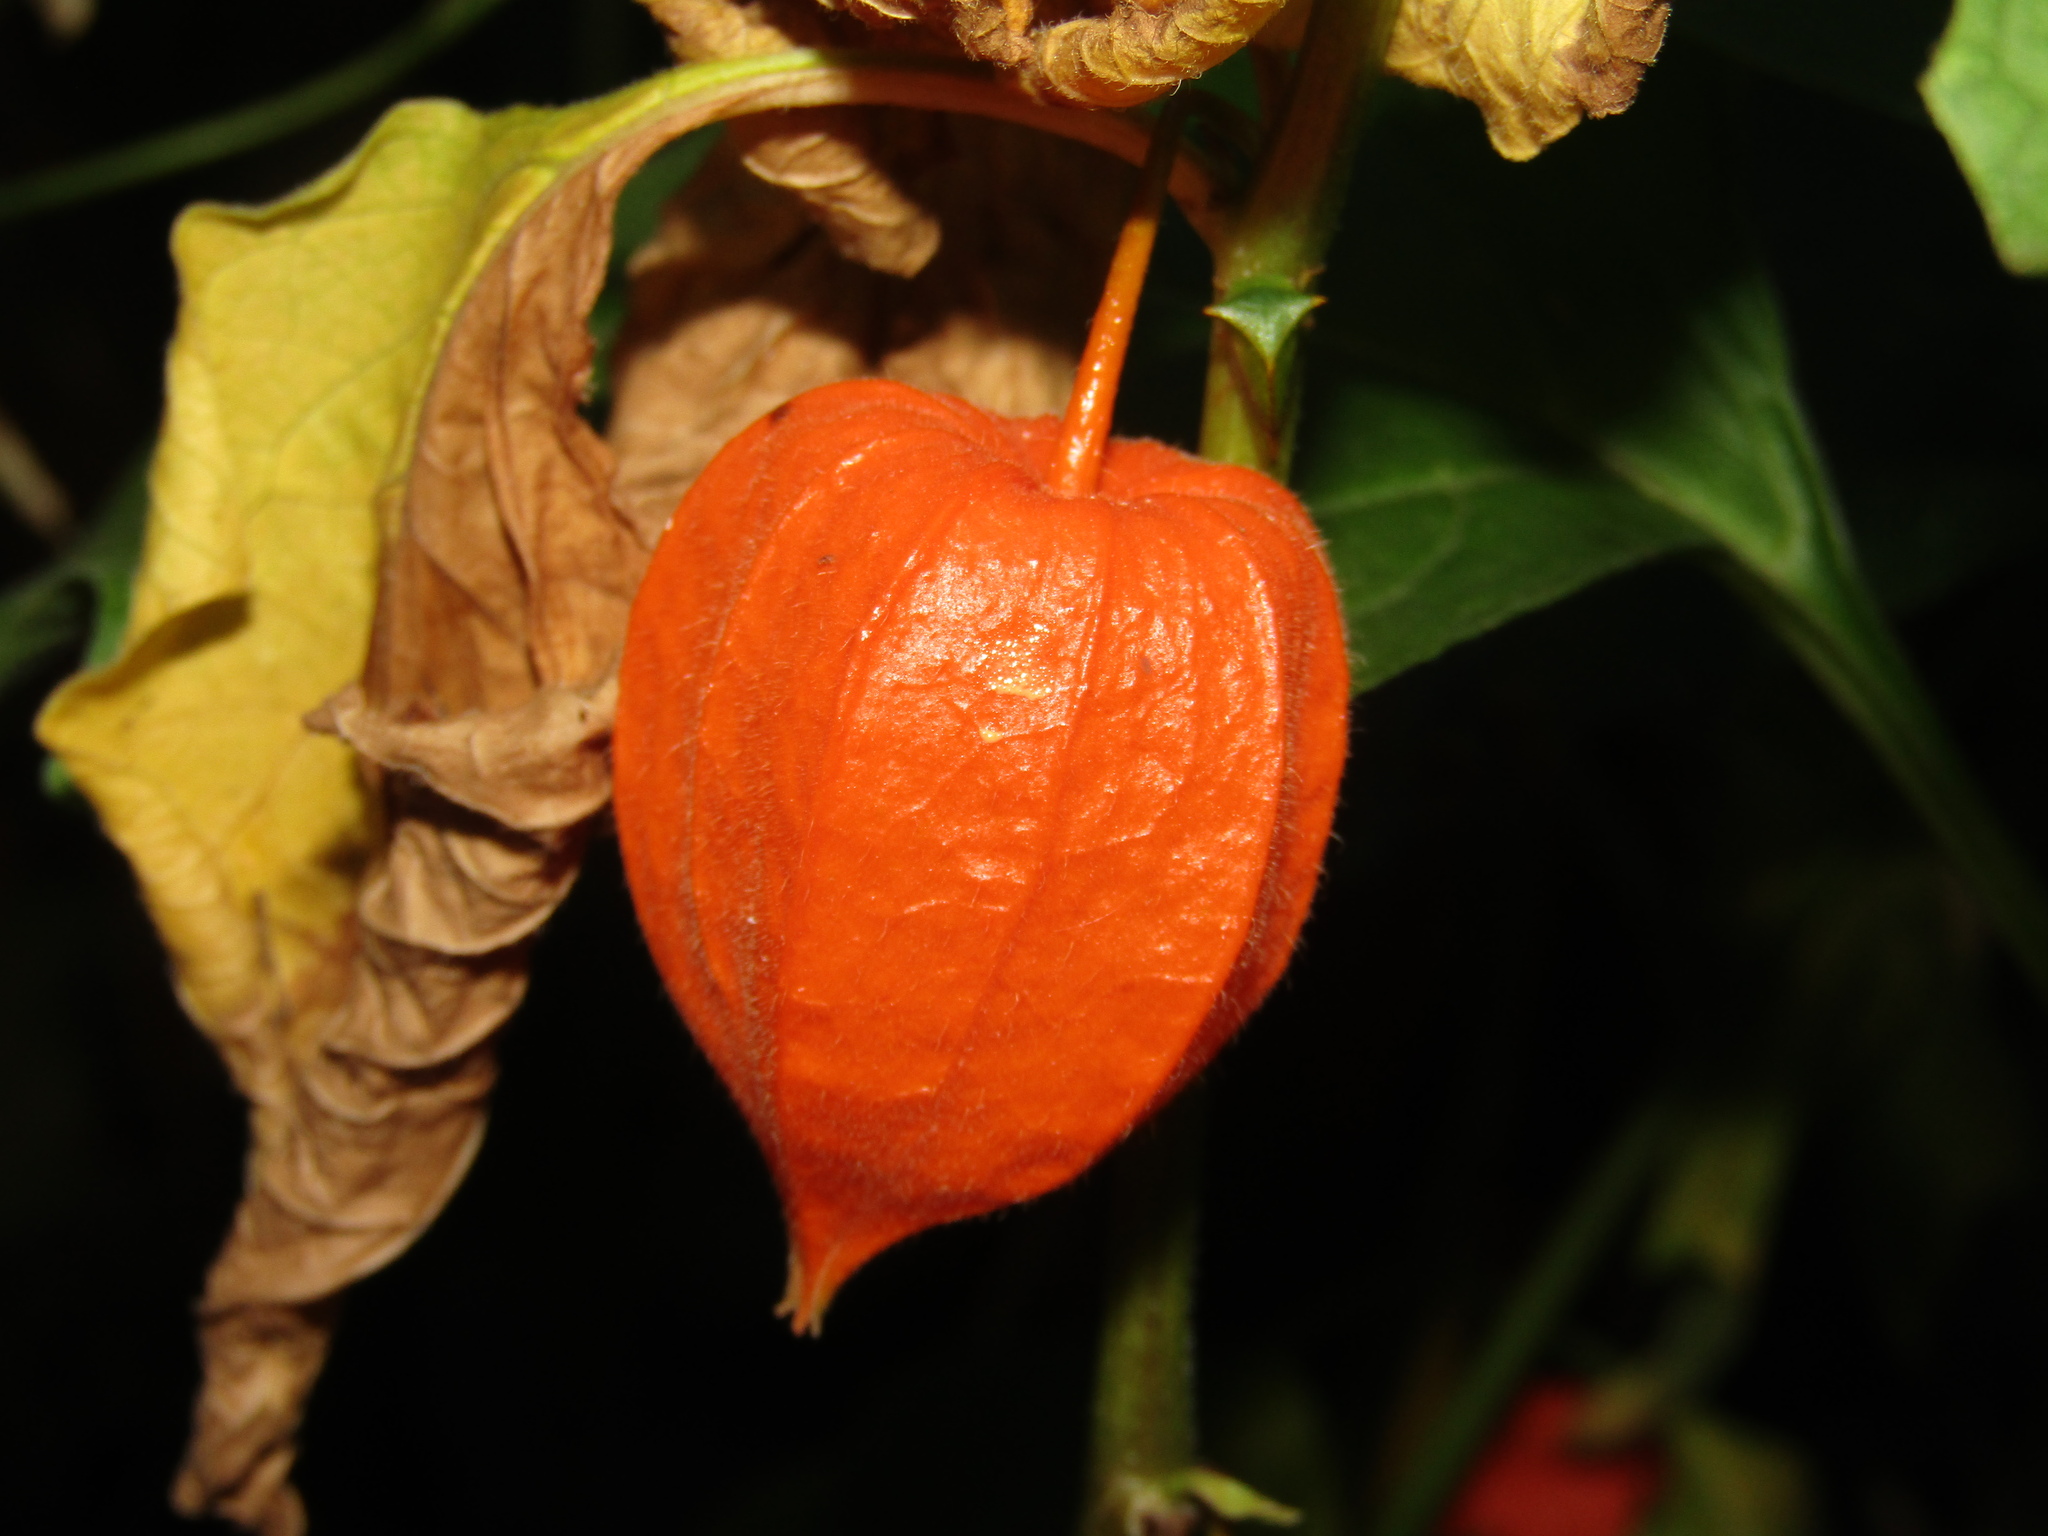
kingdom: Plantae
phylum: Tracheophyta
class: Magnoliopsida
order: Solanales
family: Solanaceae
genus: Alkekengi
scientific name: Alkekengi officinarum
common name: Japanese-lantern
